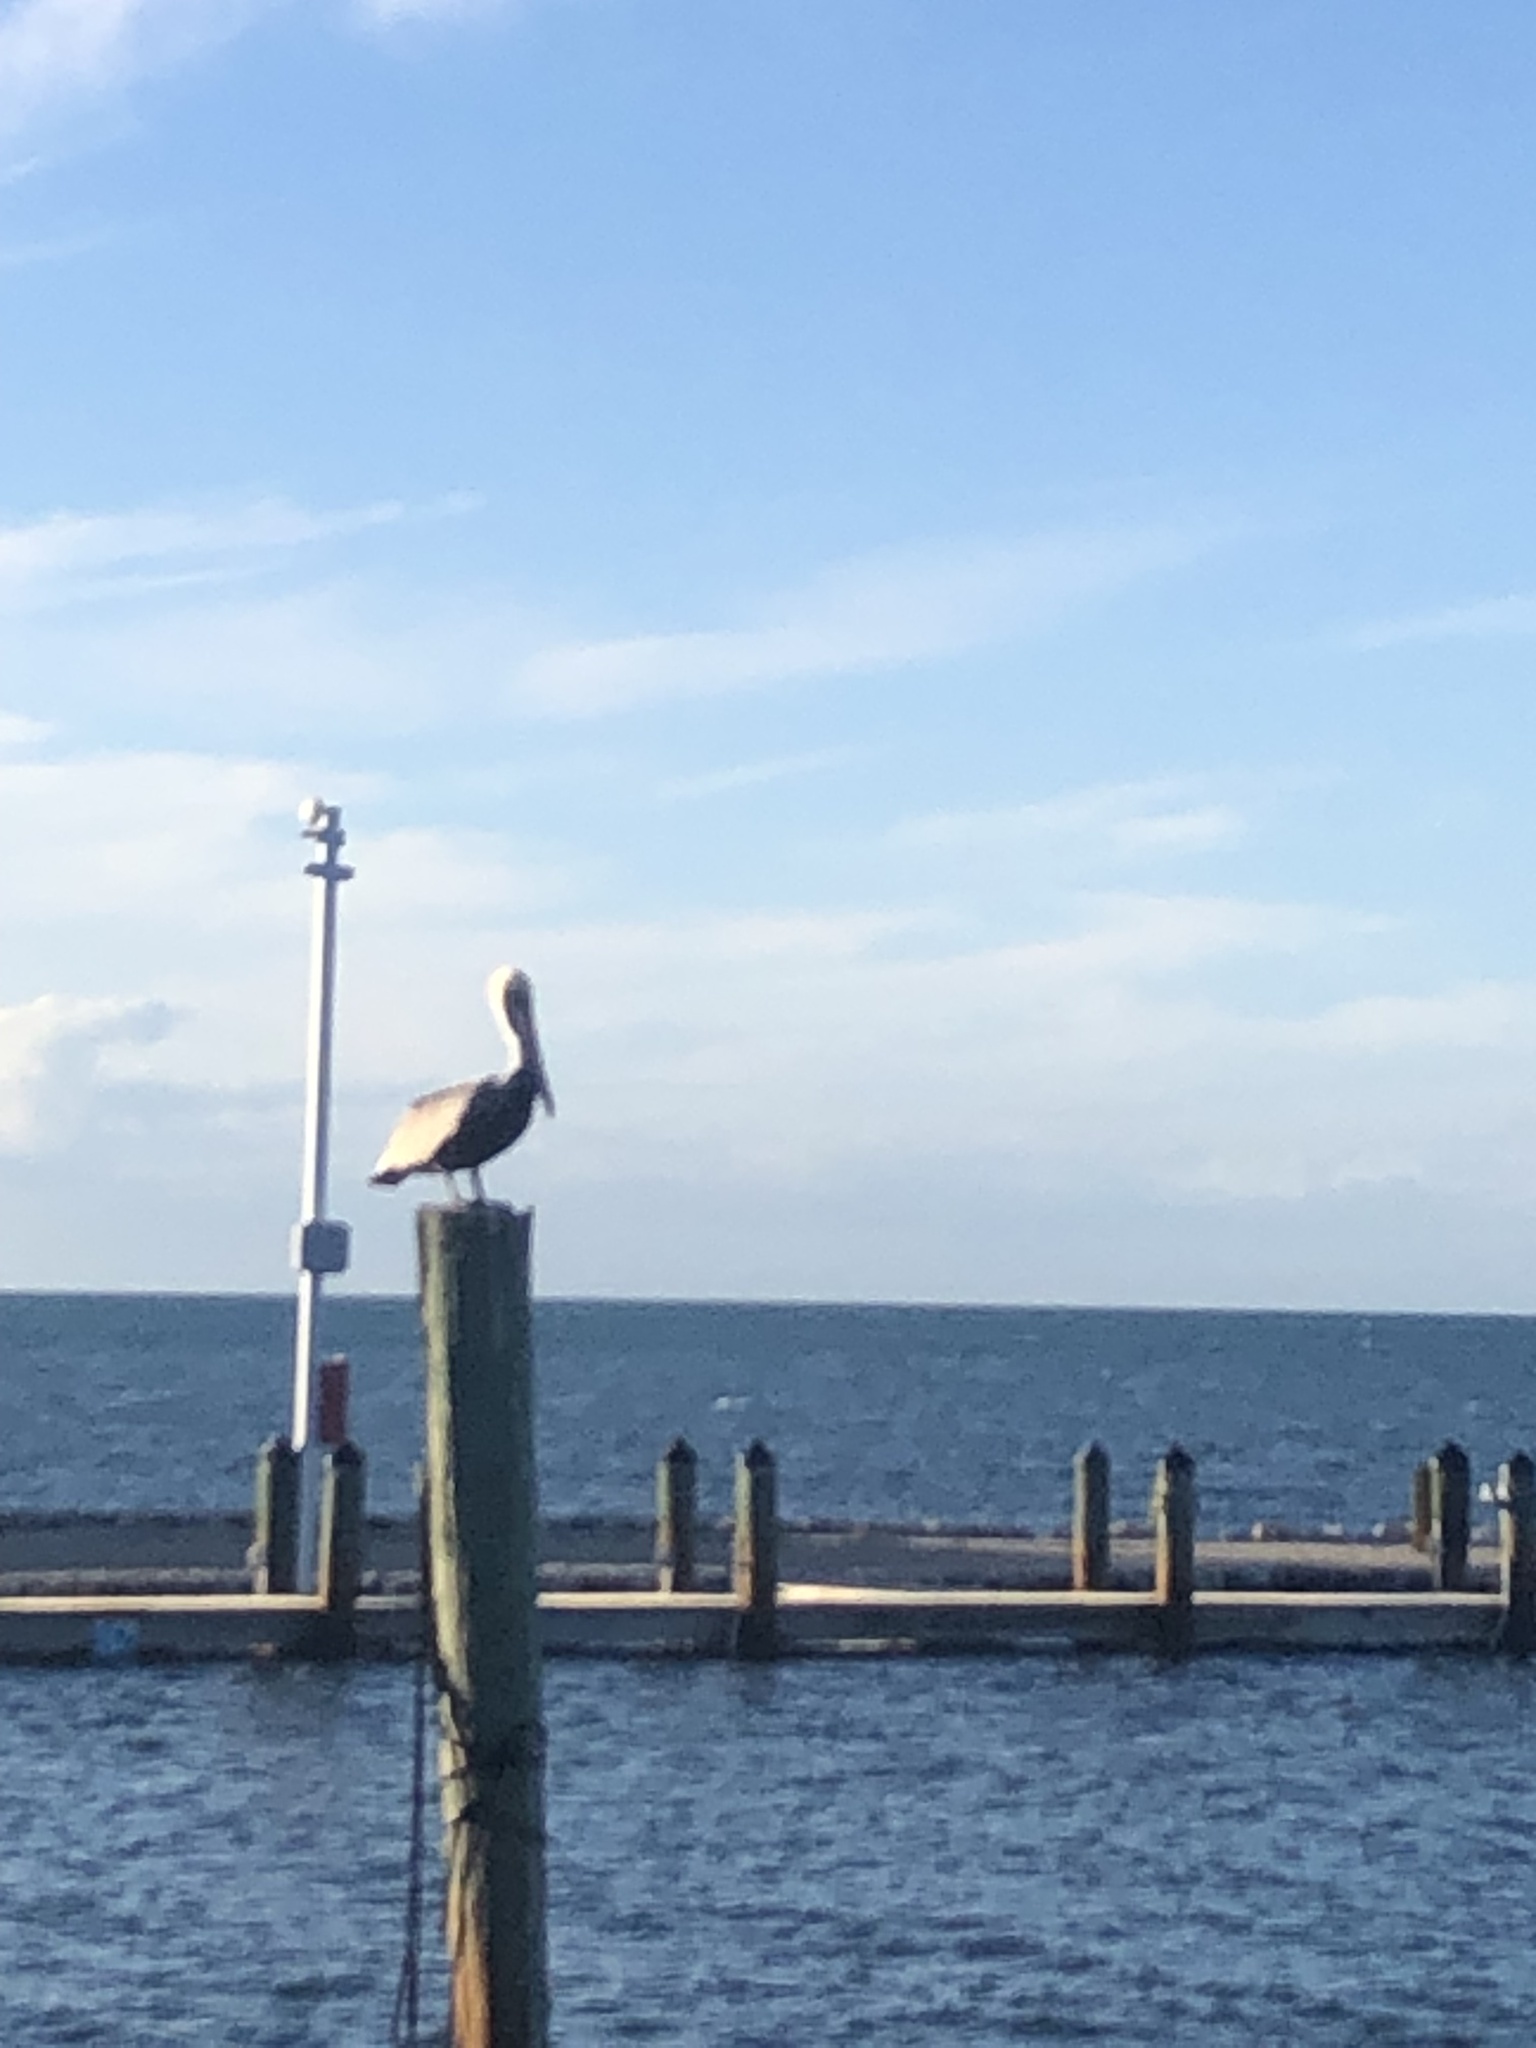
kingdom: Animalia
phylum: Chordata
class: Aves
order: Pelecaniformes
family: Pelecanidae
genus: Pelecanus
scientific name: Pelecanus occidentalis
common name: Brown pelican
